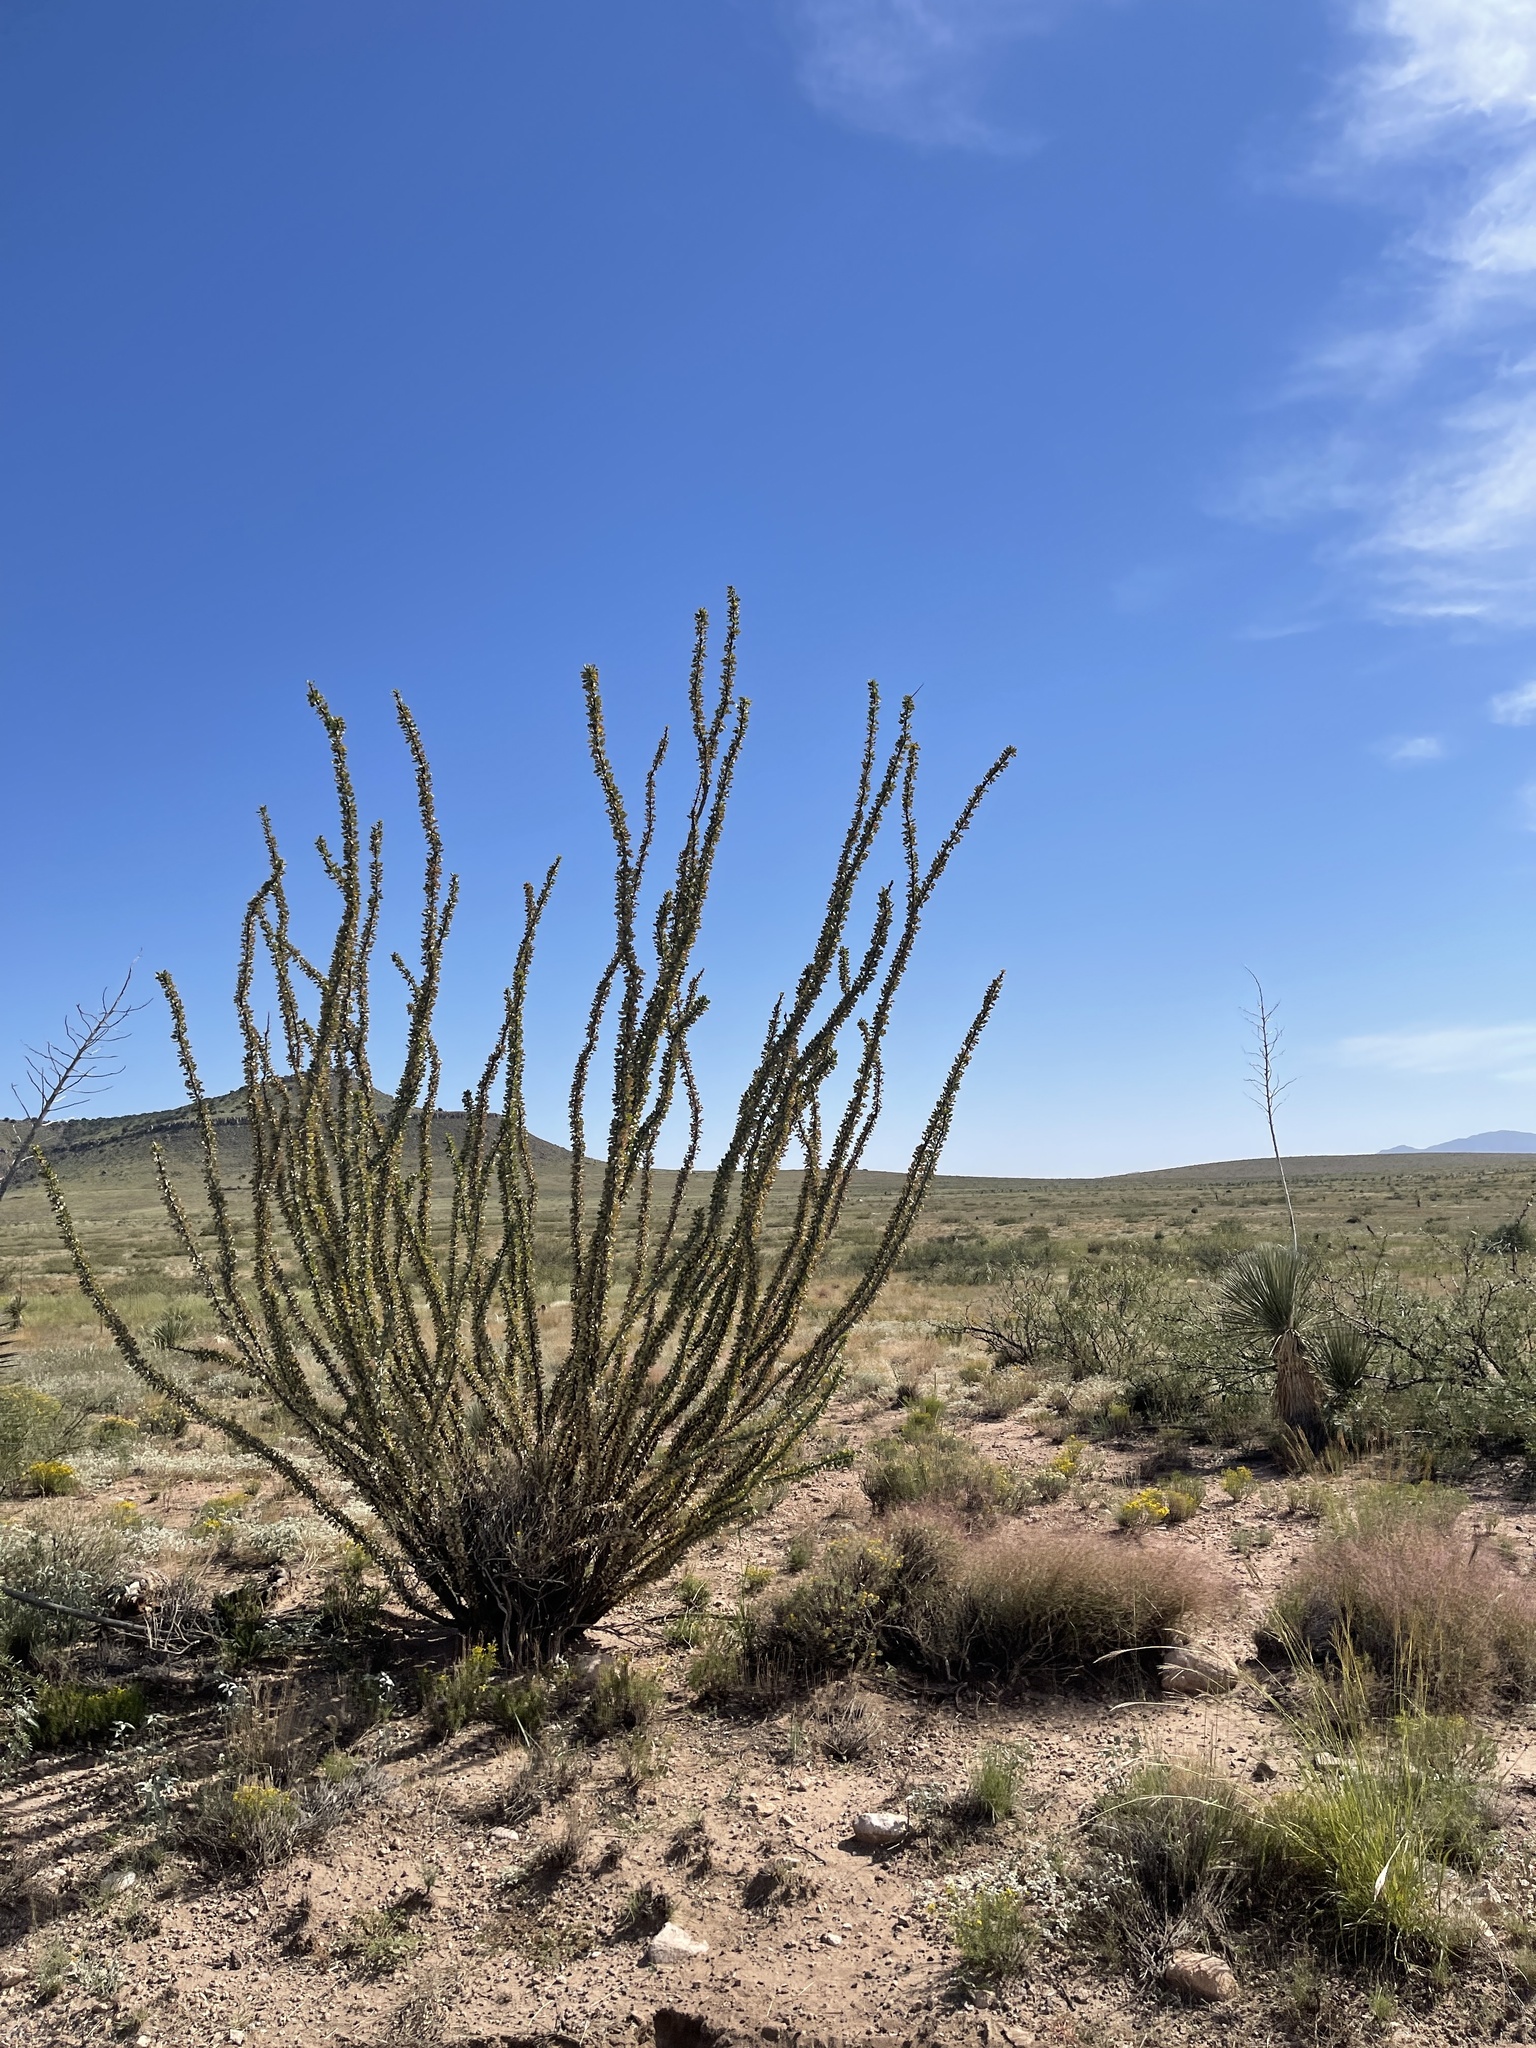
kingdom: Plantae
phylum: Tracheophyta
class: Magnoliopsida
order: Ericales
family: Fouquieriaceae
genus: Fouquieria
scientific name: Fouquieria splendens
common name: Vine-cactus
